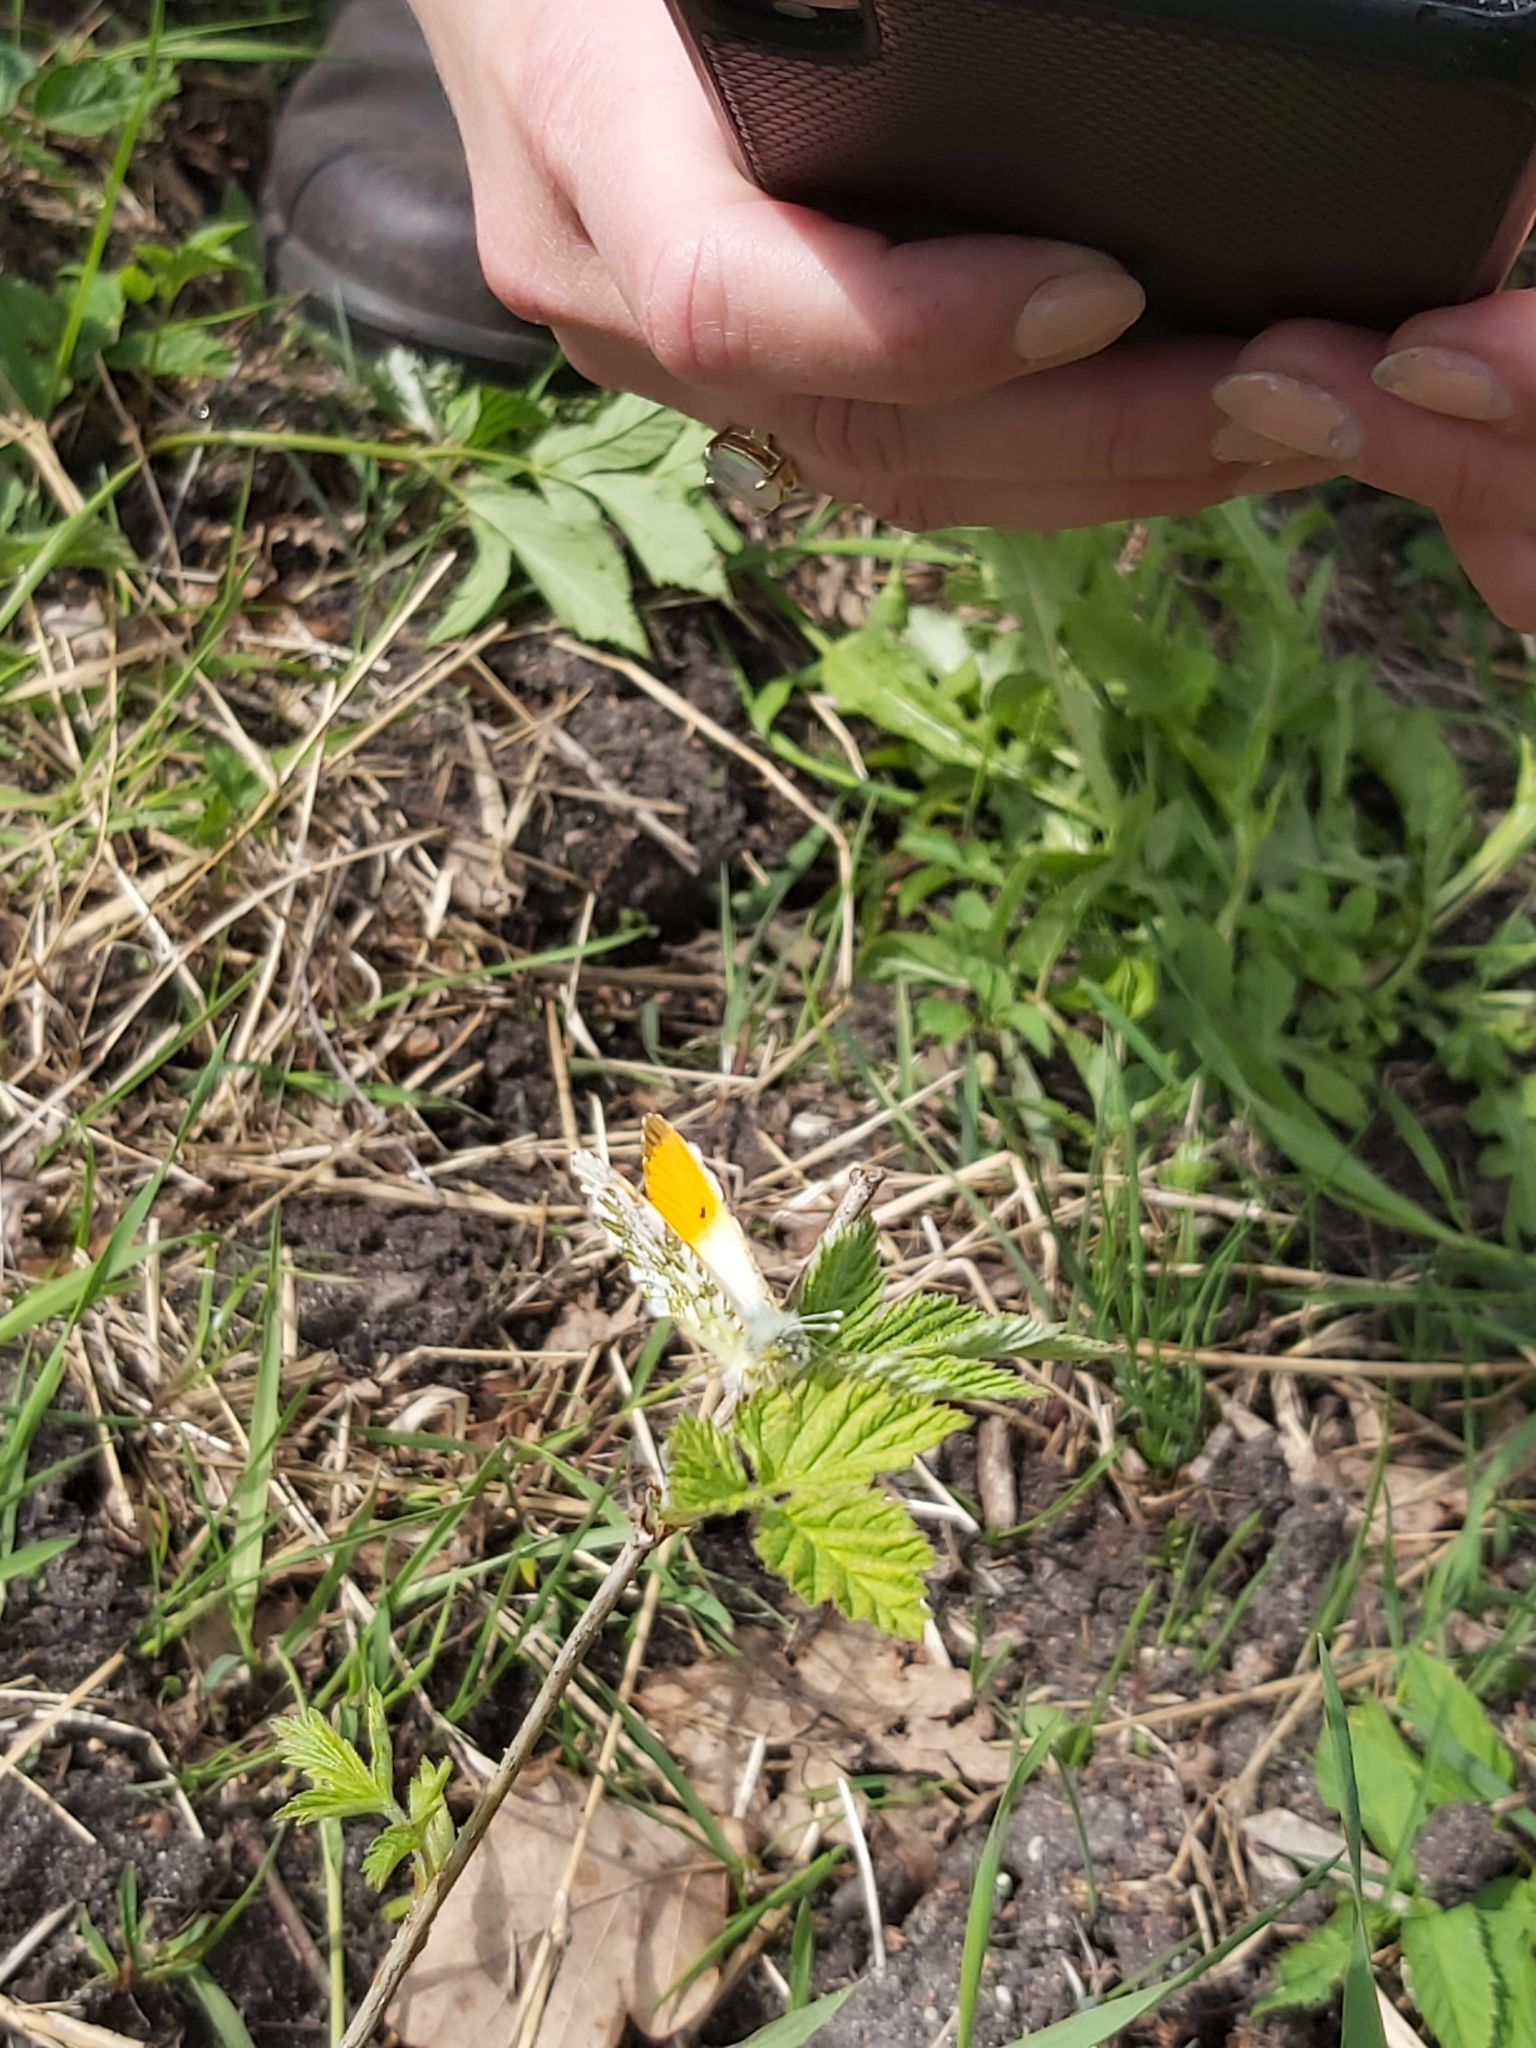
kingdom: Animalia
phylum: Arthropoda
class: Insecta
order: Lepidoptera
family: Pieridae
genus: Anthocharis
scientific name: Anthocharis cardamines
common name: Orange-tip
